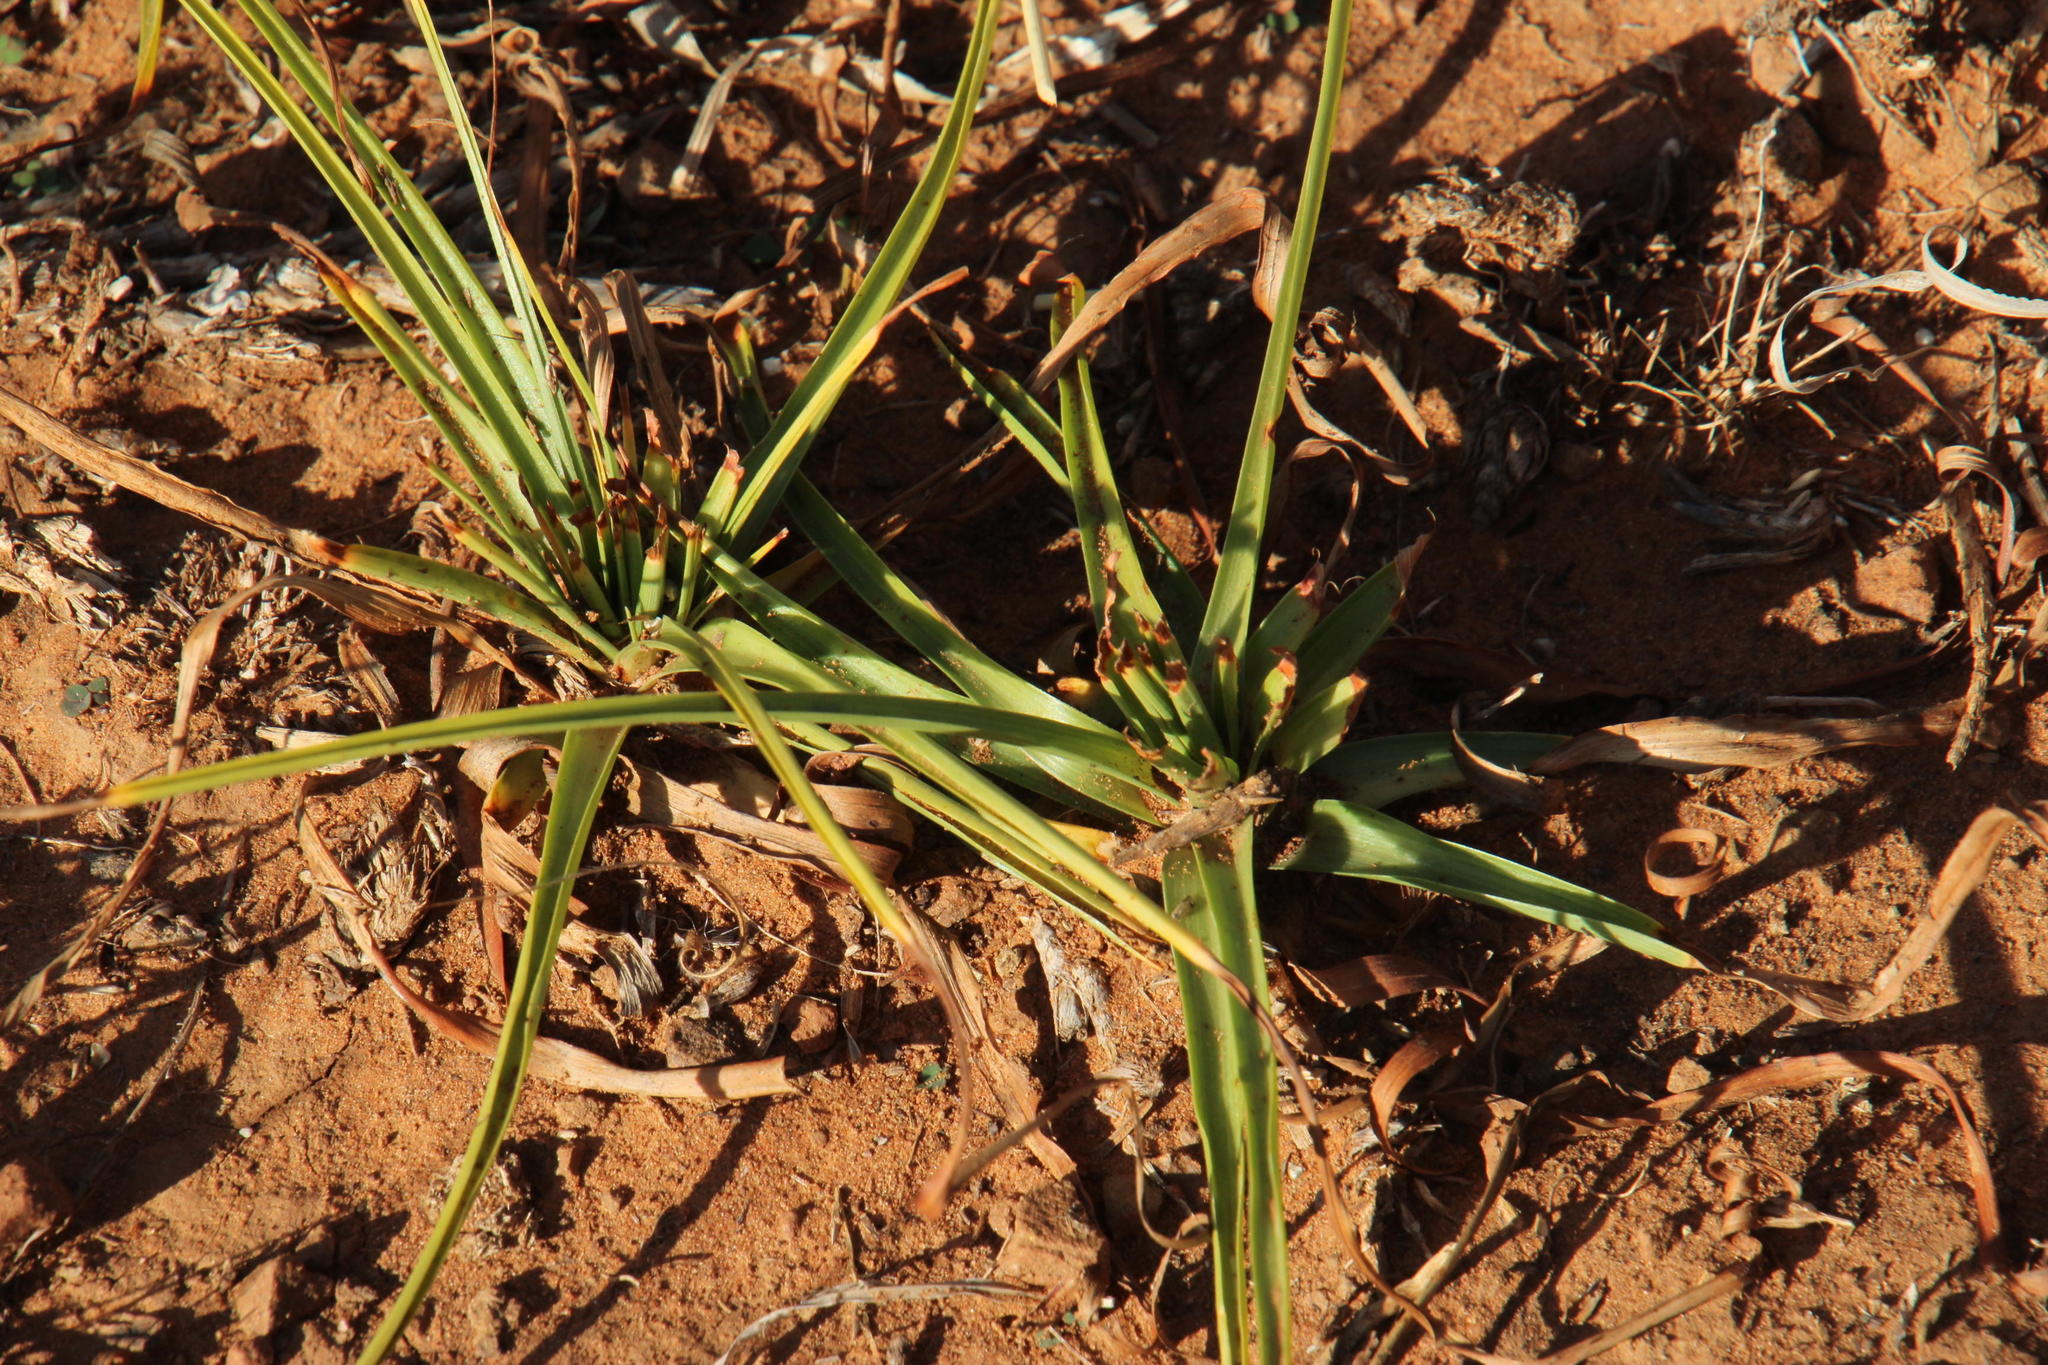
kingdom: Plantae
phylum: Tracheophyta
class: Liliopsida
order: Poales
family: Cyperaceae
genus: Cyperus
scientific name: Cyperus usitatus
